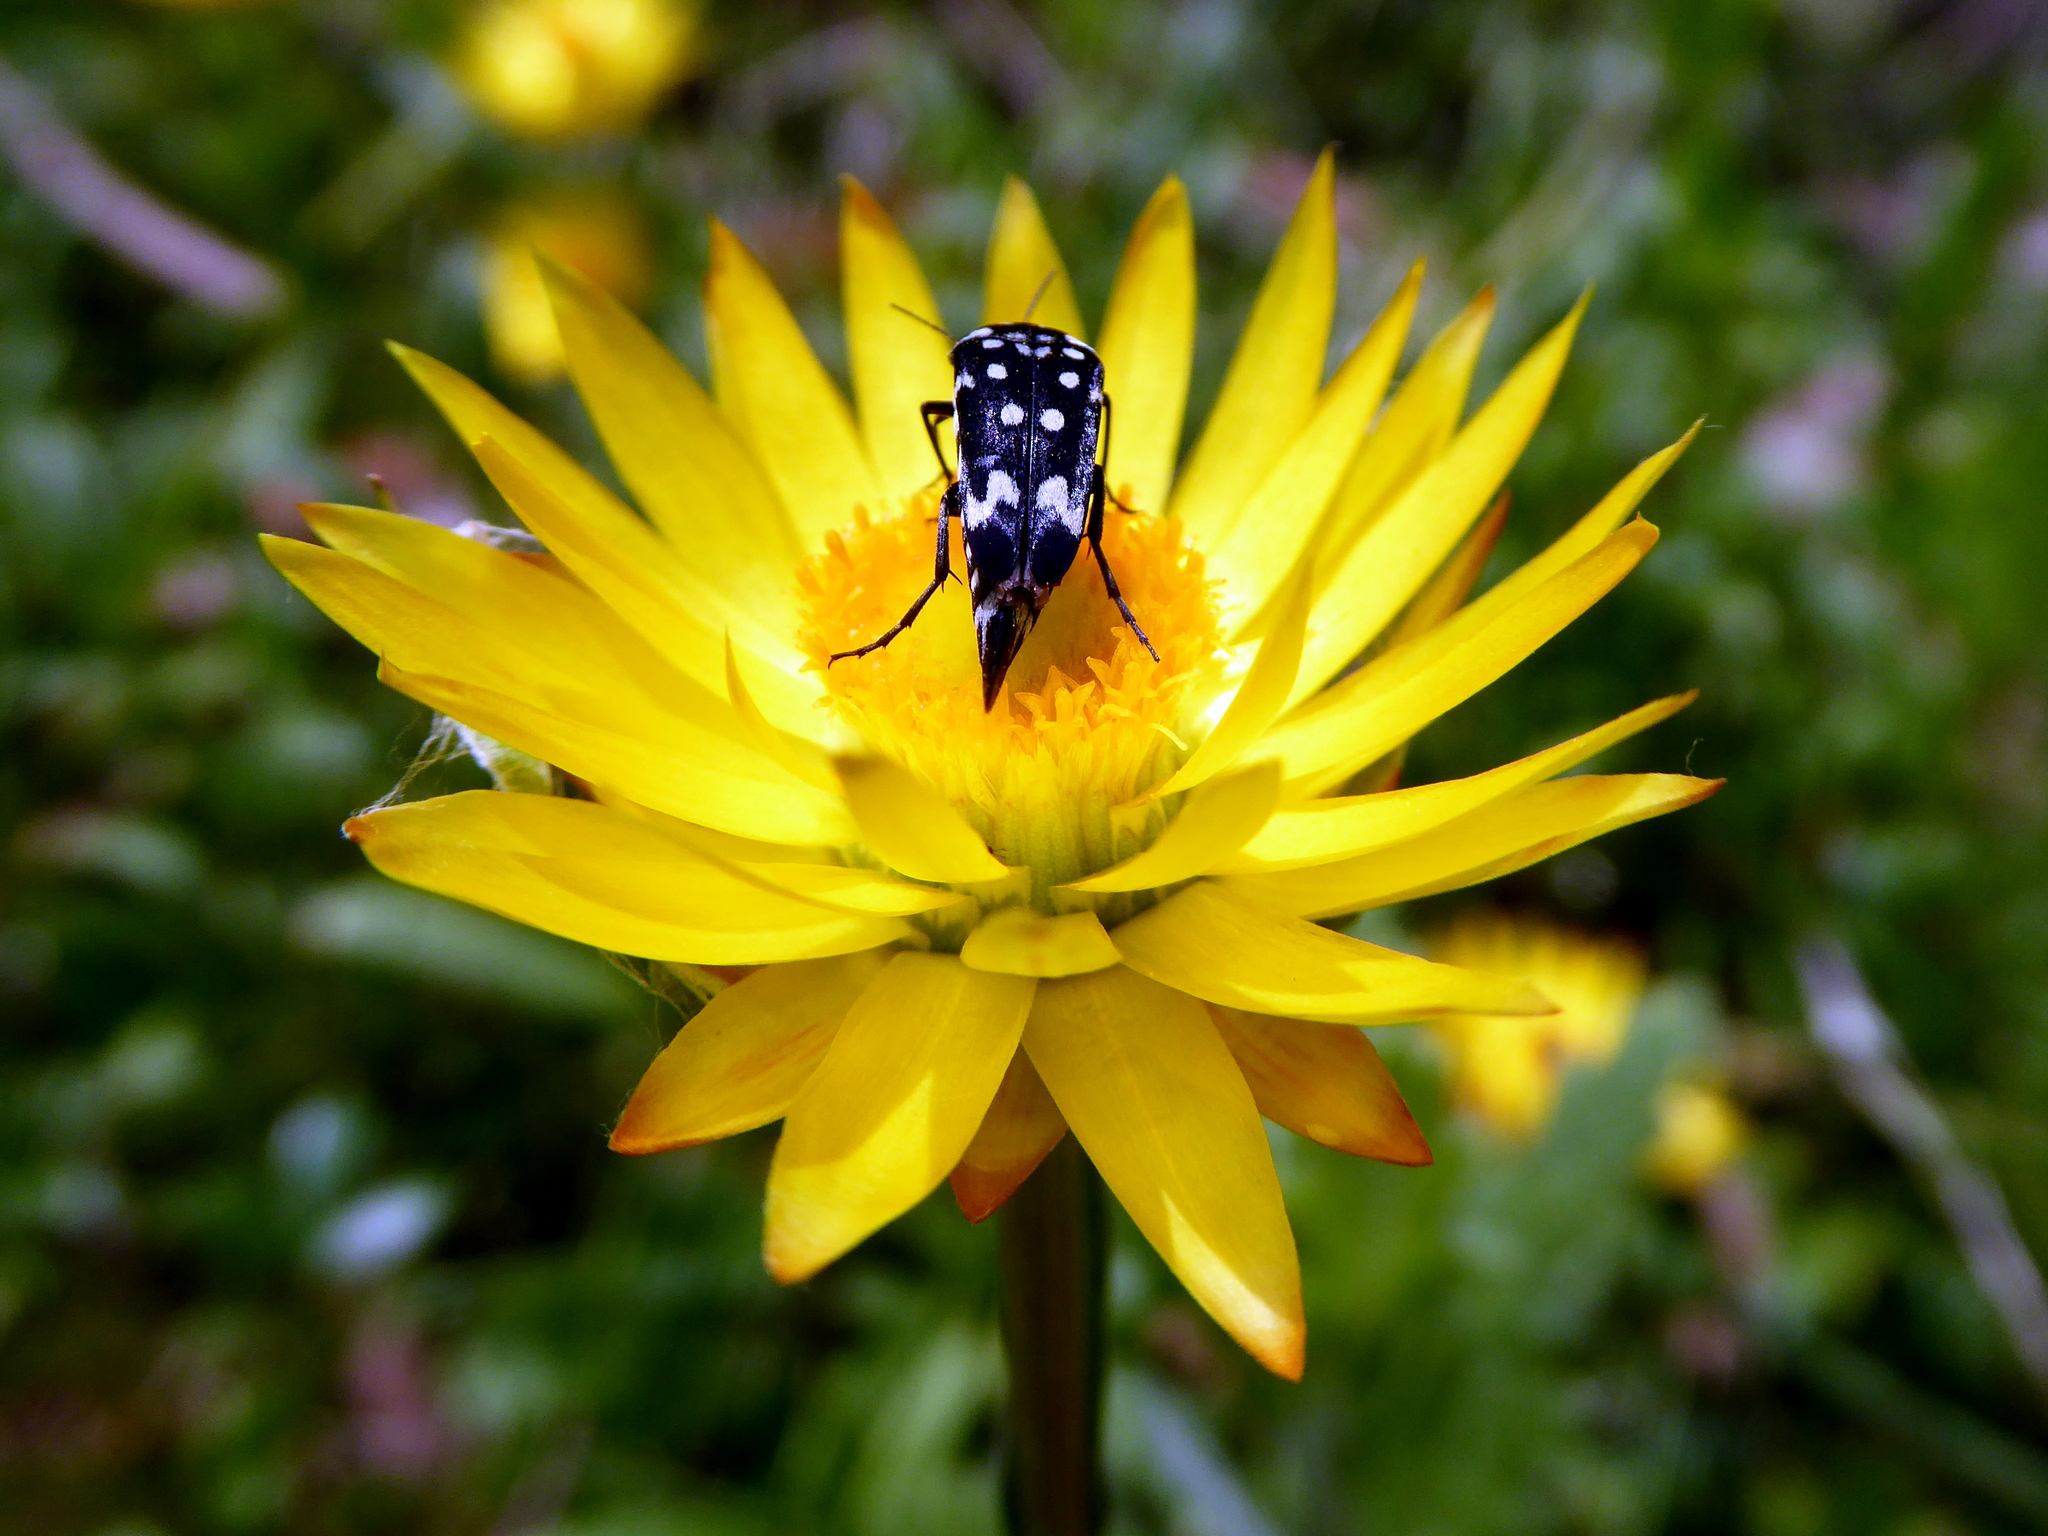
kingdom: Animalia
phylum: Arthropoda
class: Insecta
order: Coleoptera
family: Mordellidae
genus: Hoshihananomia
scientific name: Hoshihananomia
